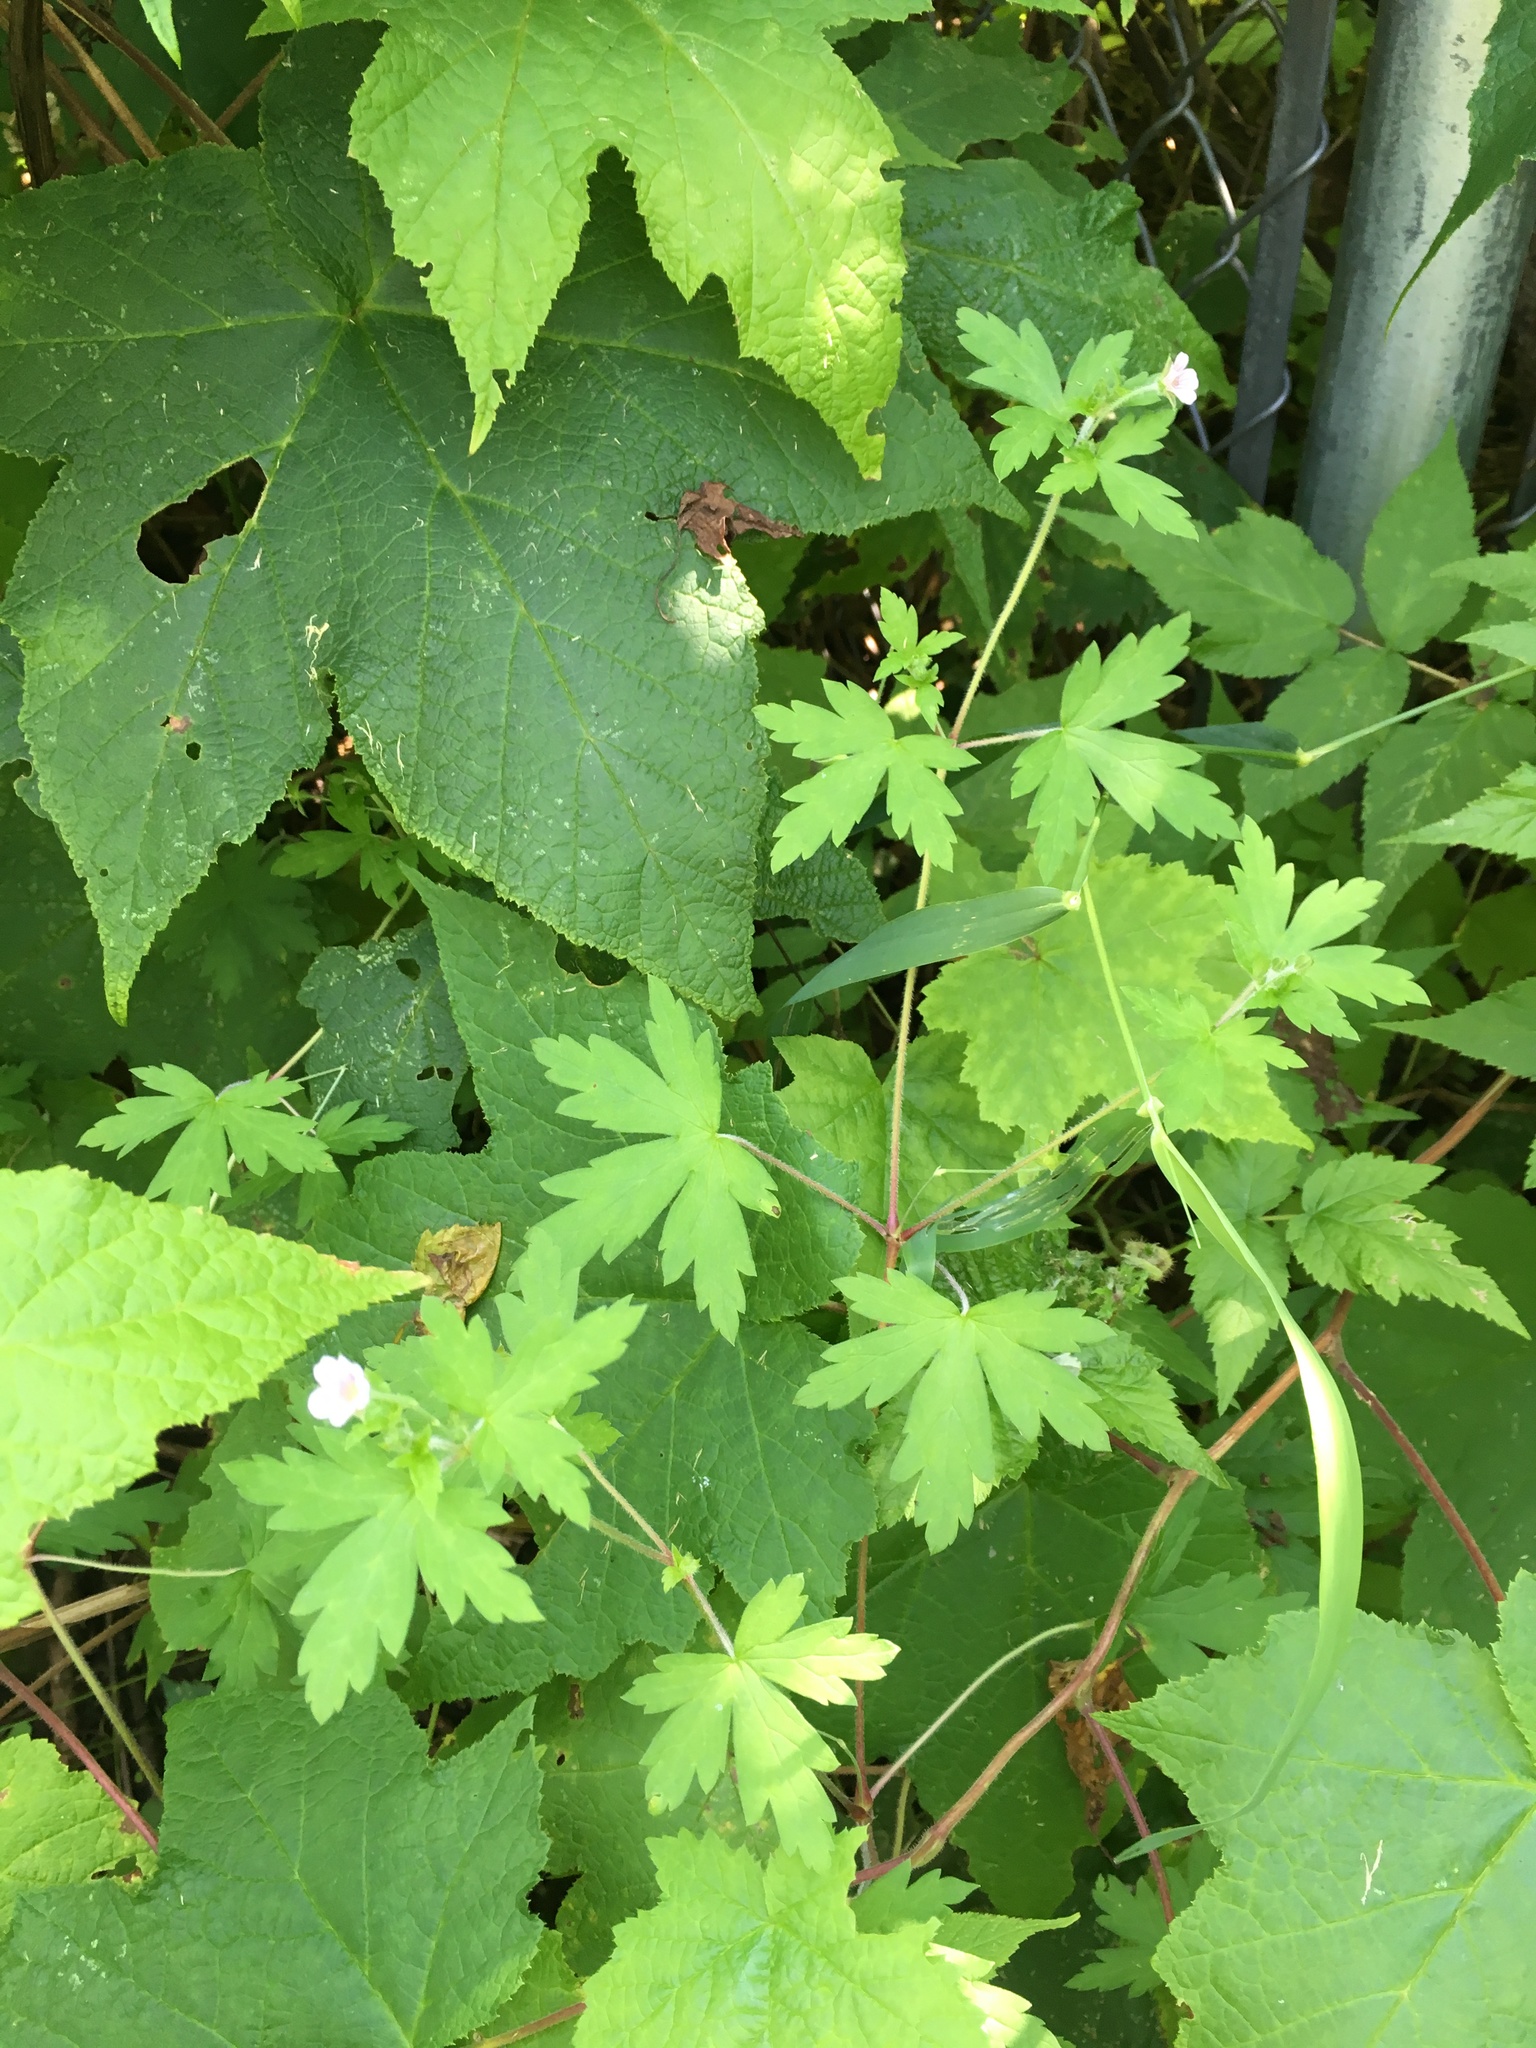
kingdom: Plantae
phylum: Tracheophyta
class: Magnoliopsida
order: Geraniales
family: Geraniaceae
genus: Geranium
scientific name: Geranium sibiricum
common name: Siberian crane's-bill
